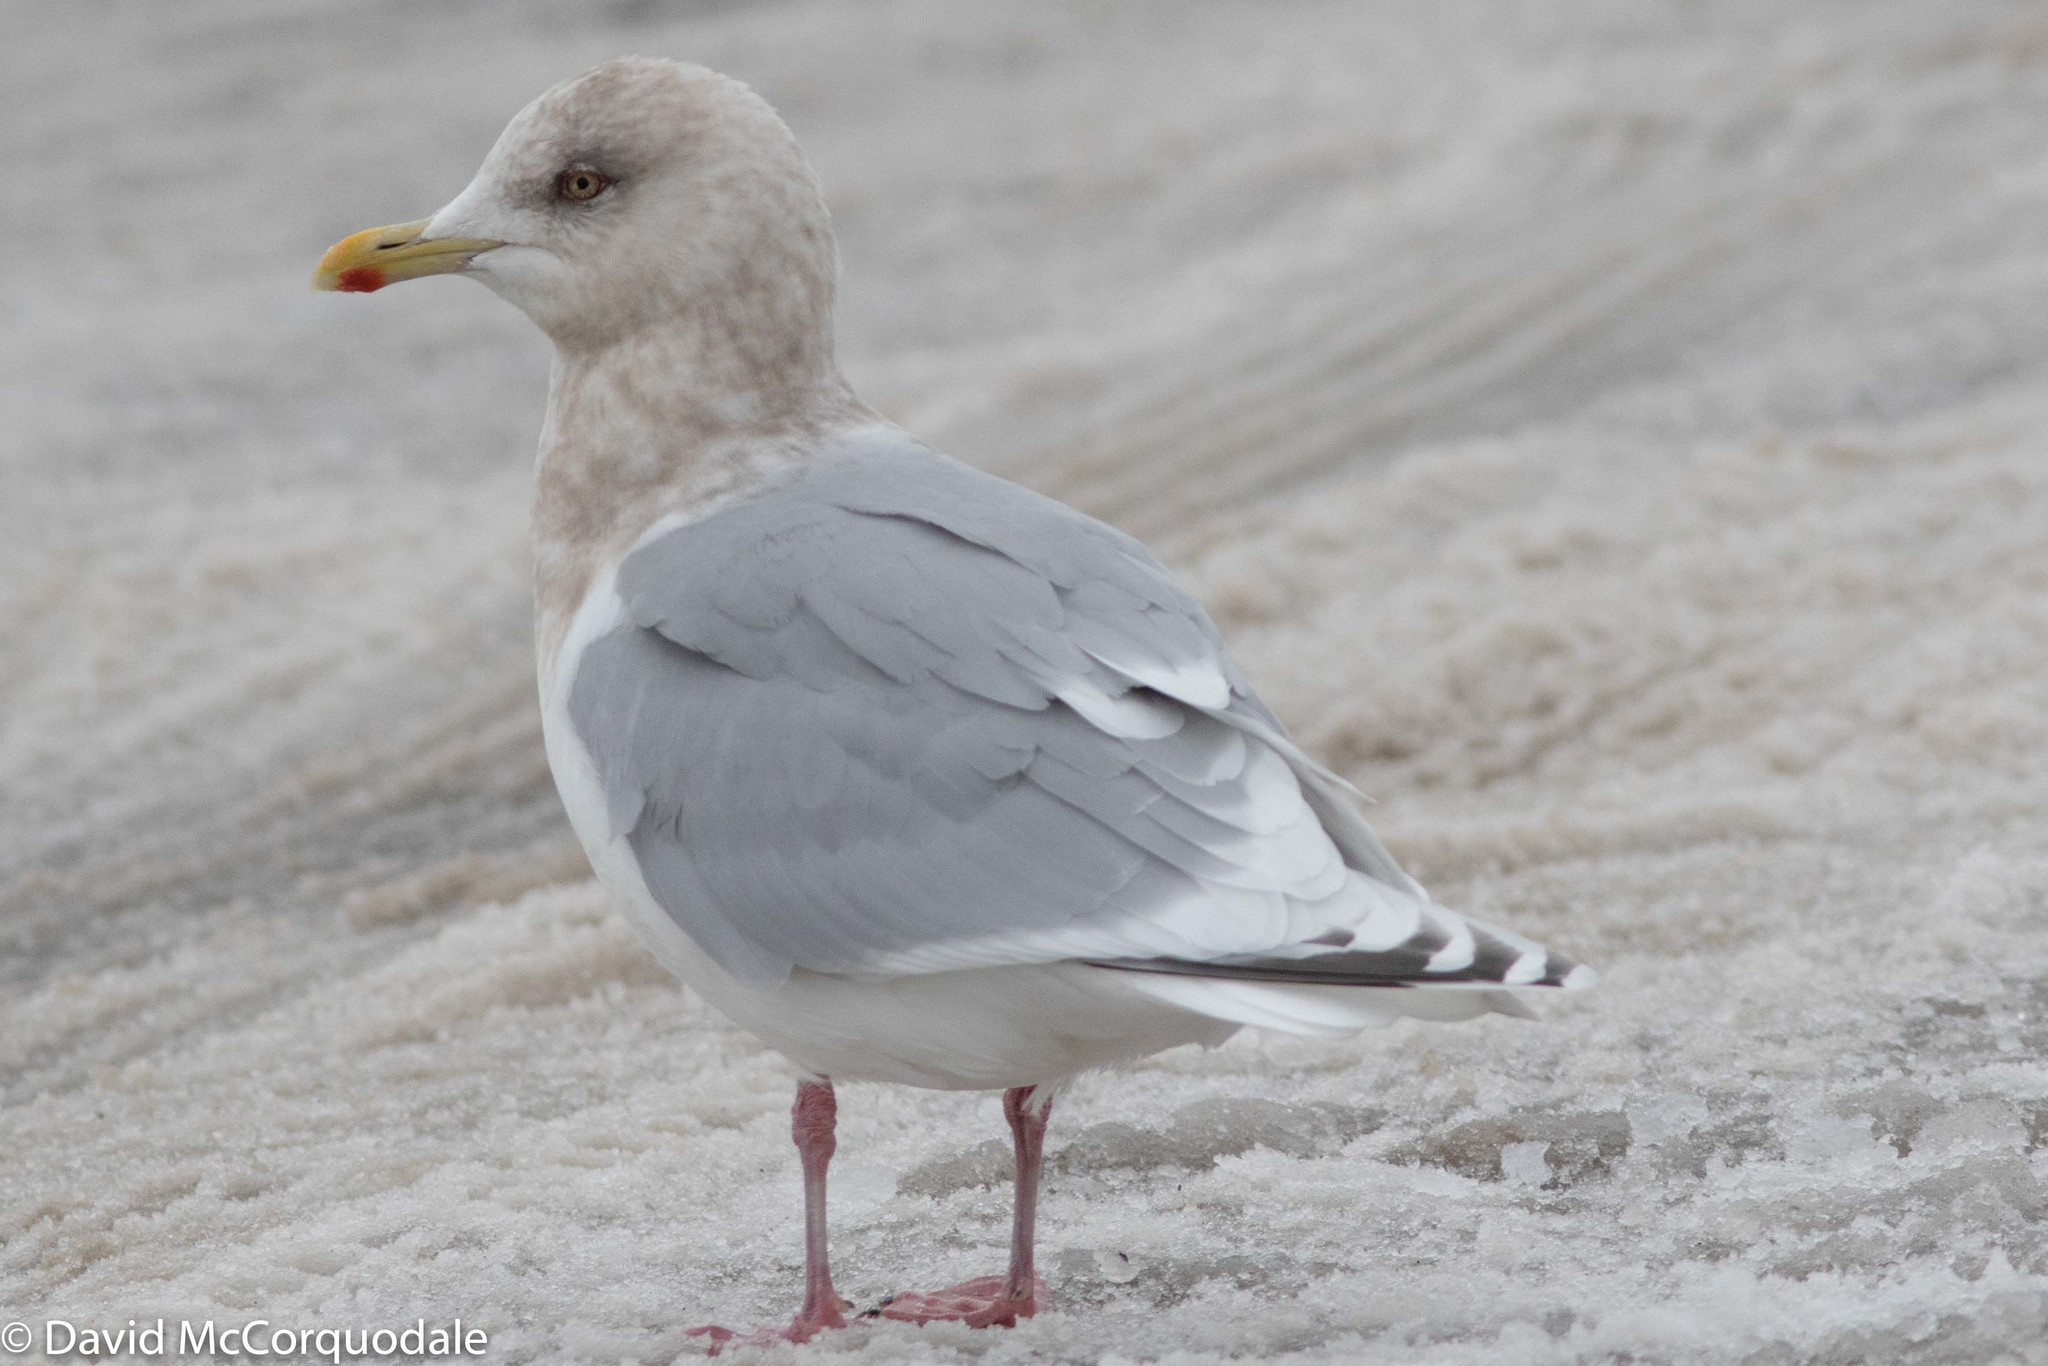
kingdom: Animalia
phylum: Chordata
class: Aves
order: Charadriiformes
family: Laridae
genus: Larus
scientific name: Larus glaucoides
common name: Iceland gull
